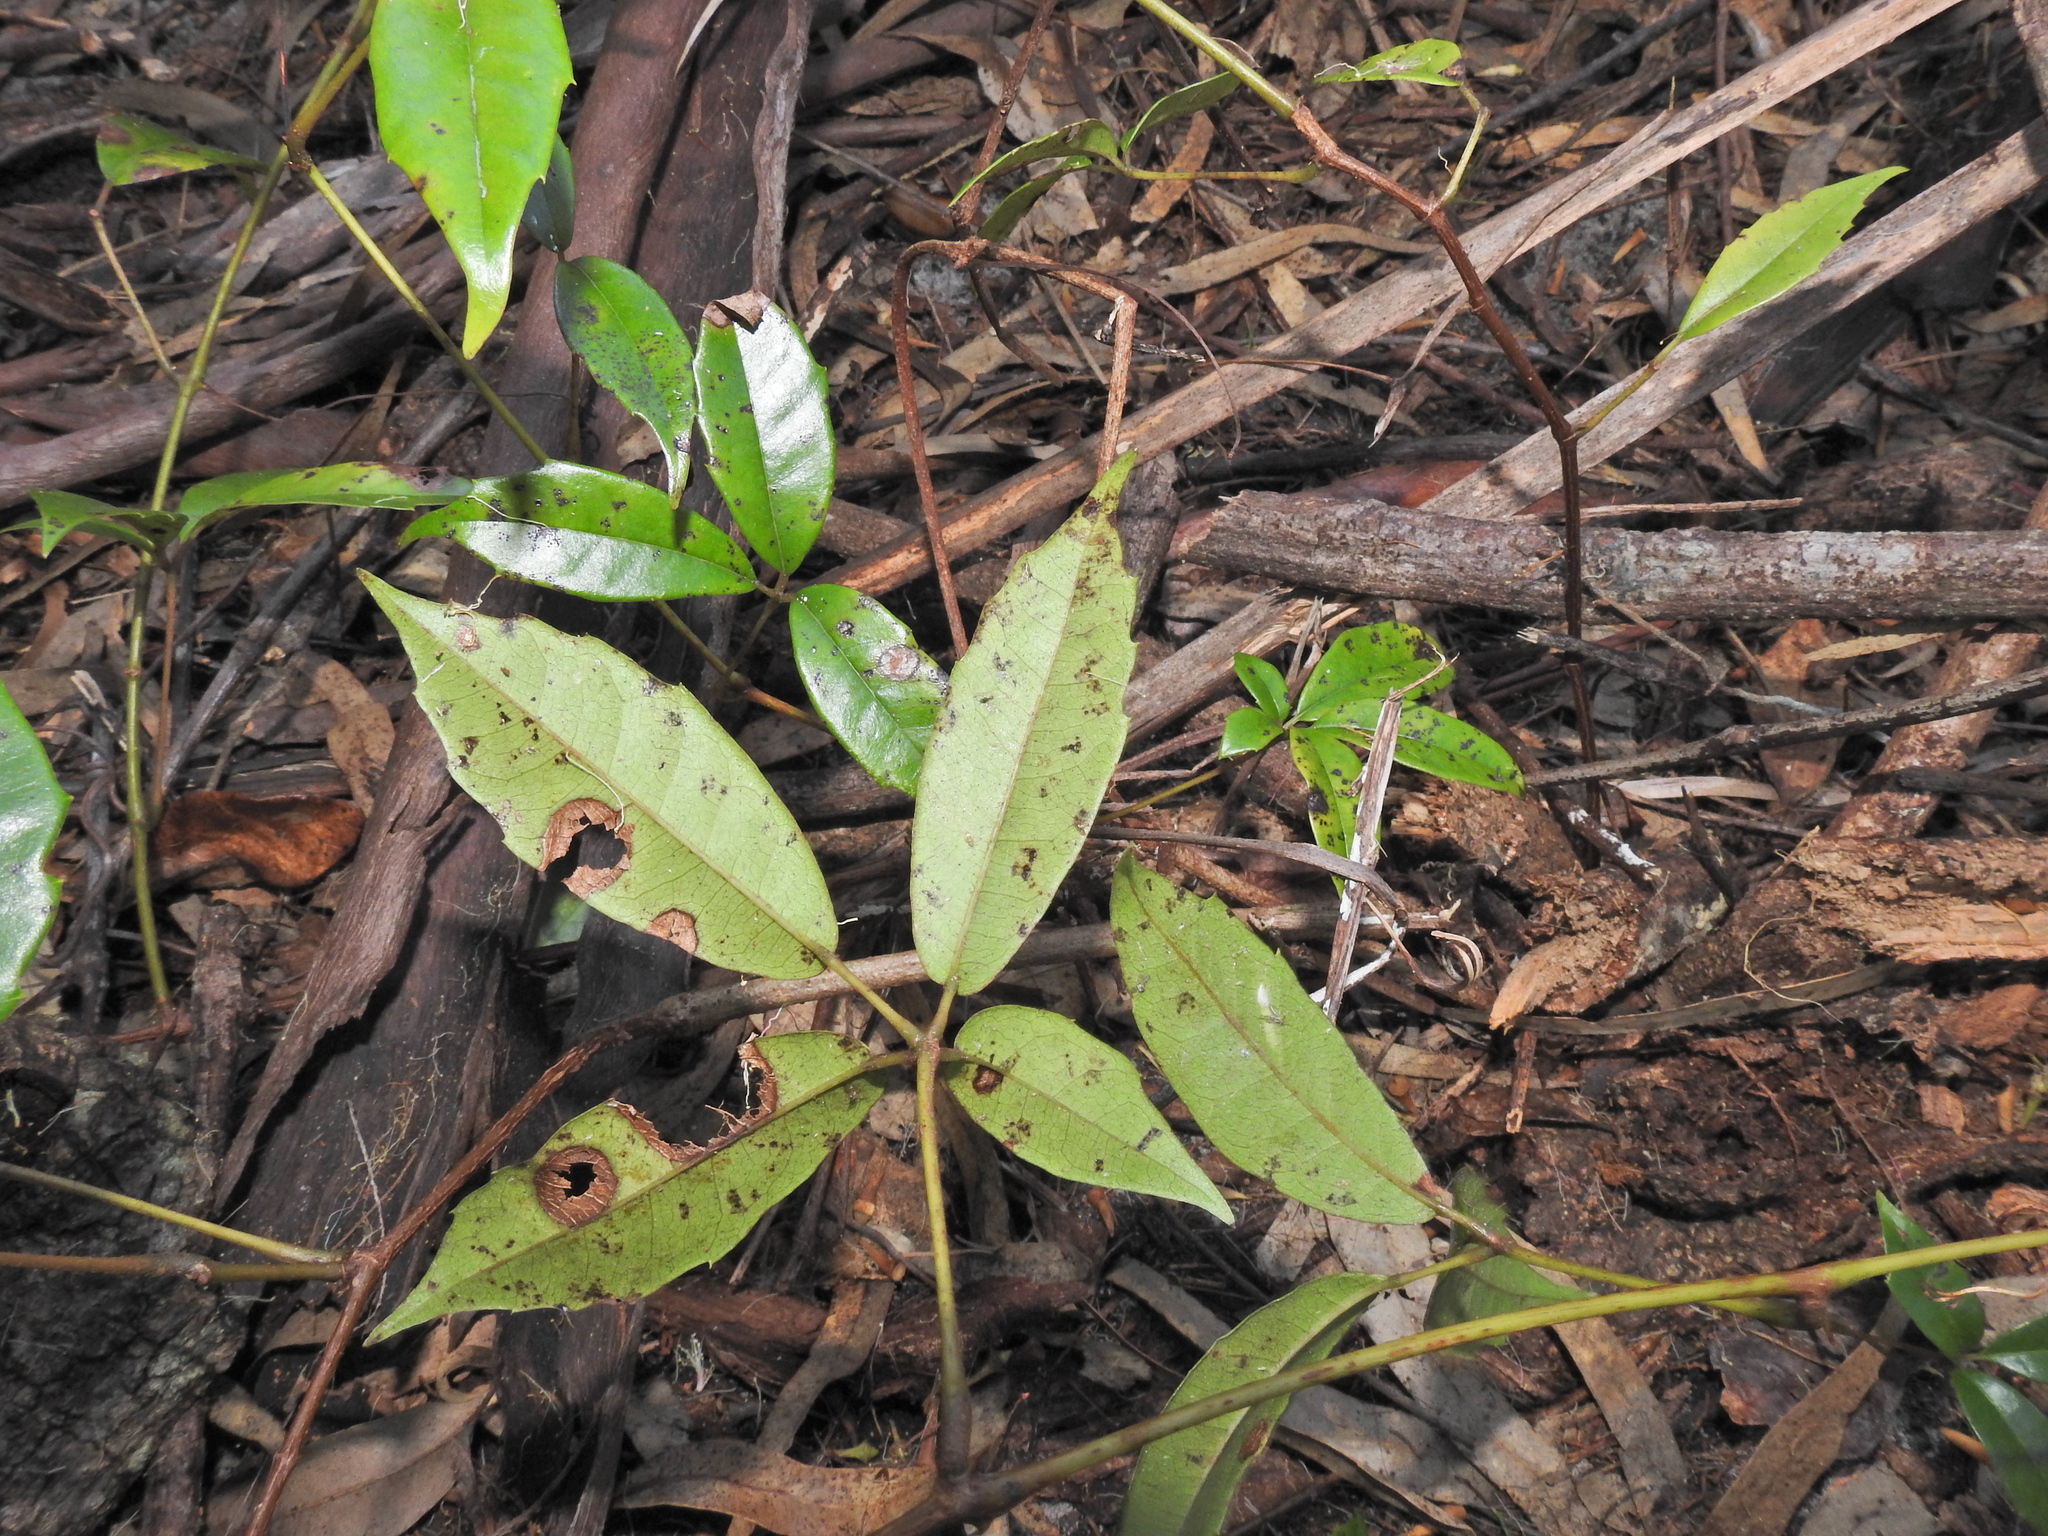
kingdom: Plantae
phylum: Tracheophyta
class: Magnoliopsida
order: Vitales
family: Vitaceae
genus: Nothocissus
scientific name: Nothocissus hypoglauca
